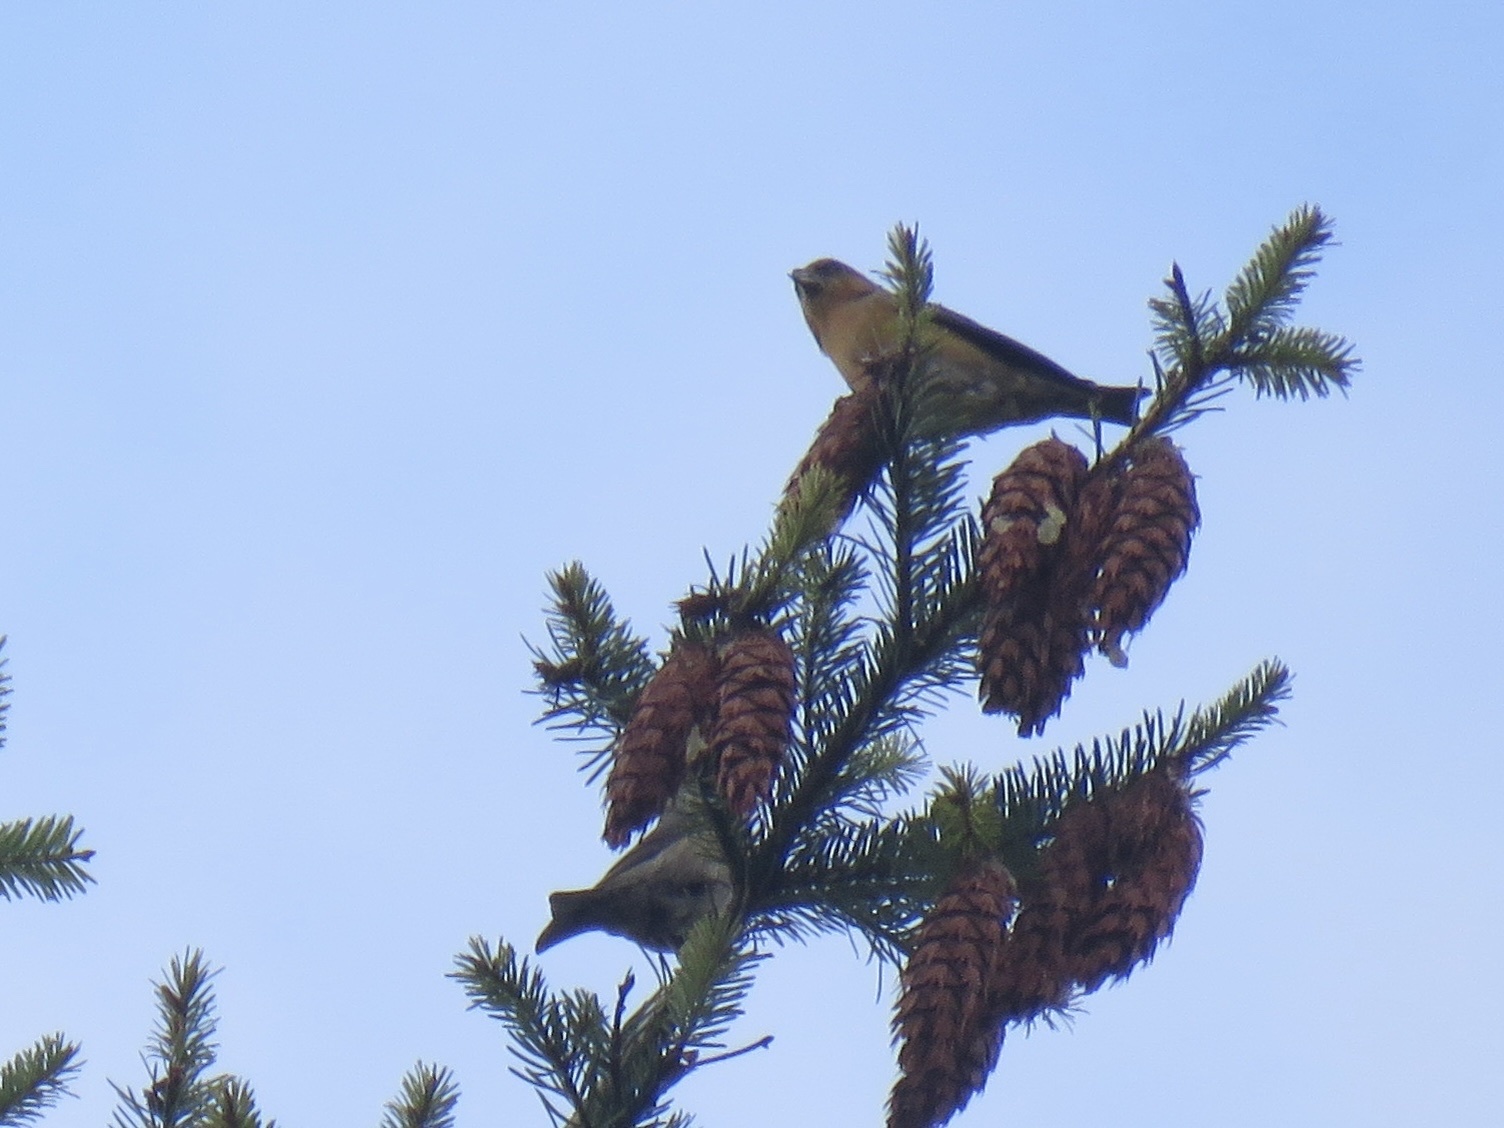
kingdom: Animalia
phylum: Chordata
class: Aves
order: Passeriformes
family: Fringillidae
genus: Loxia
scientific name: Loxia curvirostra
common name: Red crossbill
